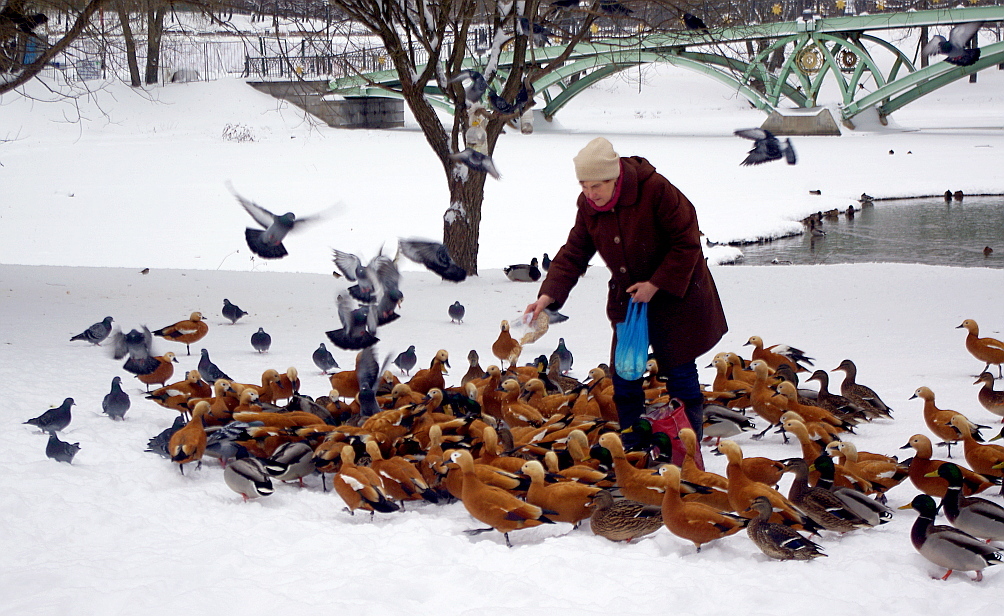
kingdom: Animalia
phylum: Chordata
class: Aves
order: Anseriformes
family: Anatidae
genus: Anas
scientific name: Anas platyrhynchos
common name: Mallard
